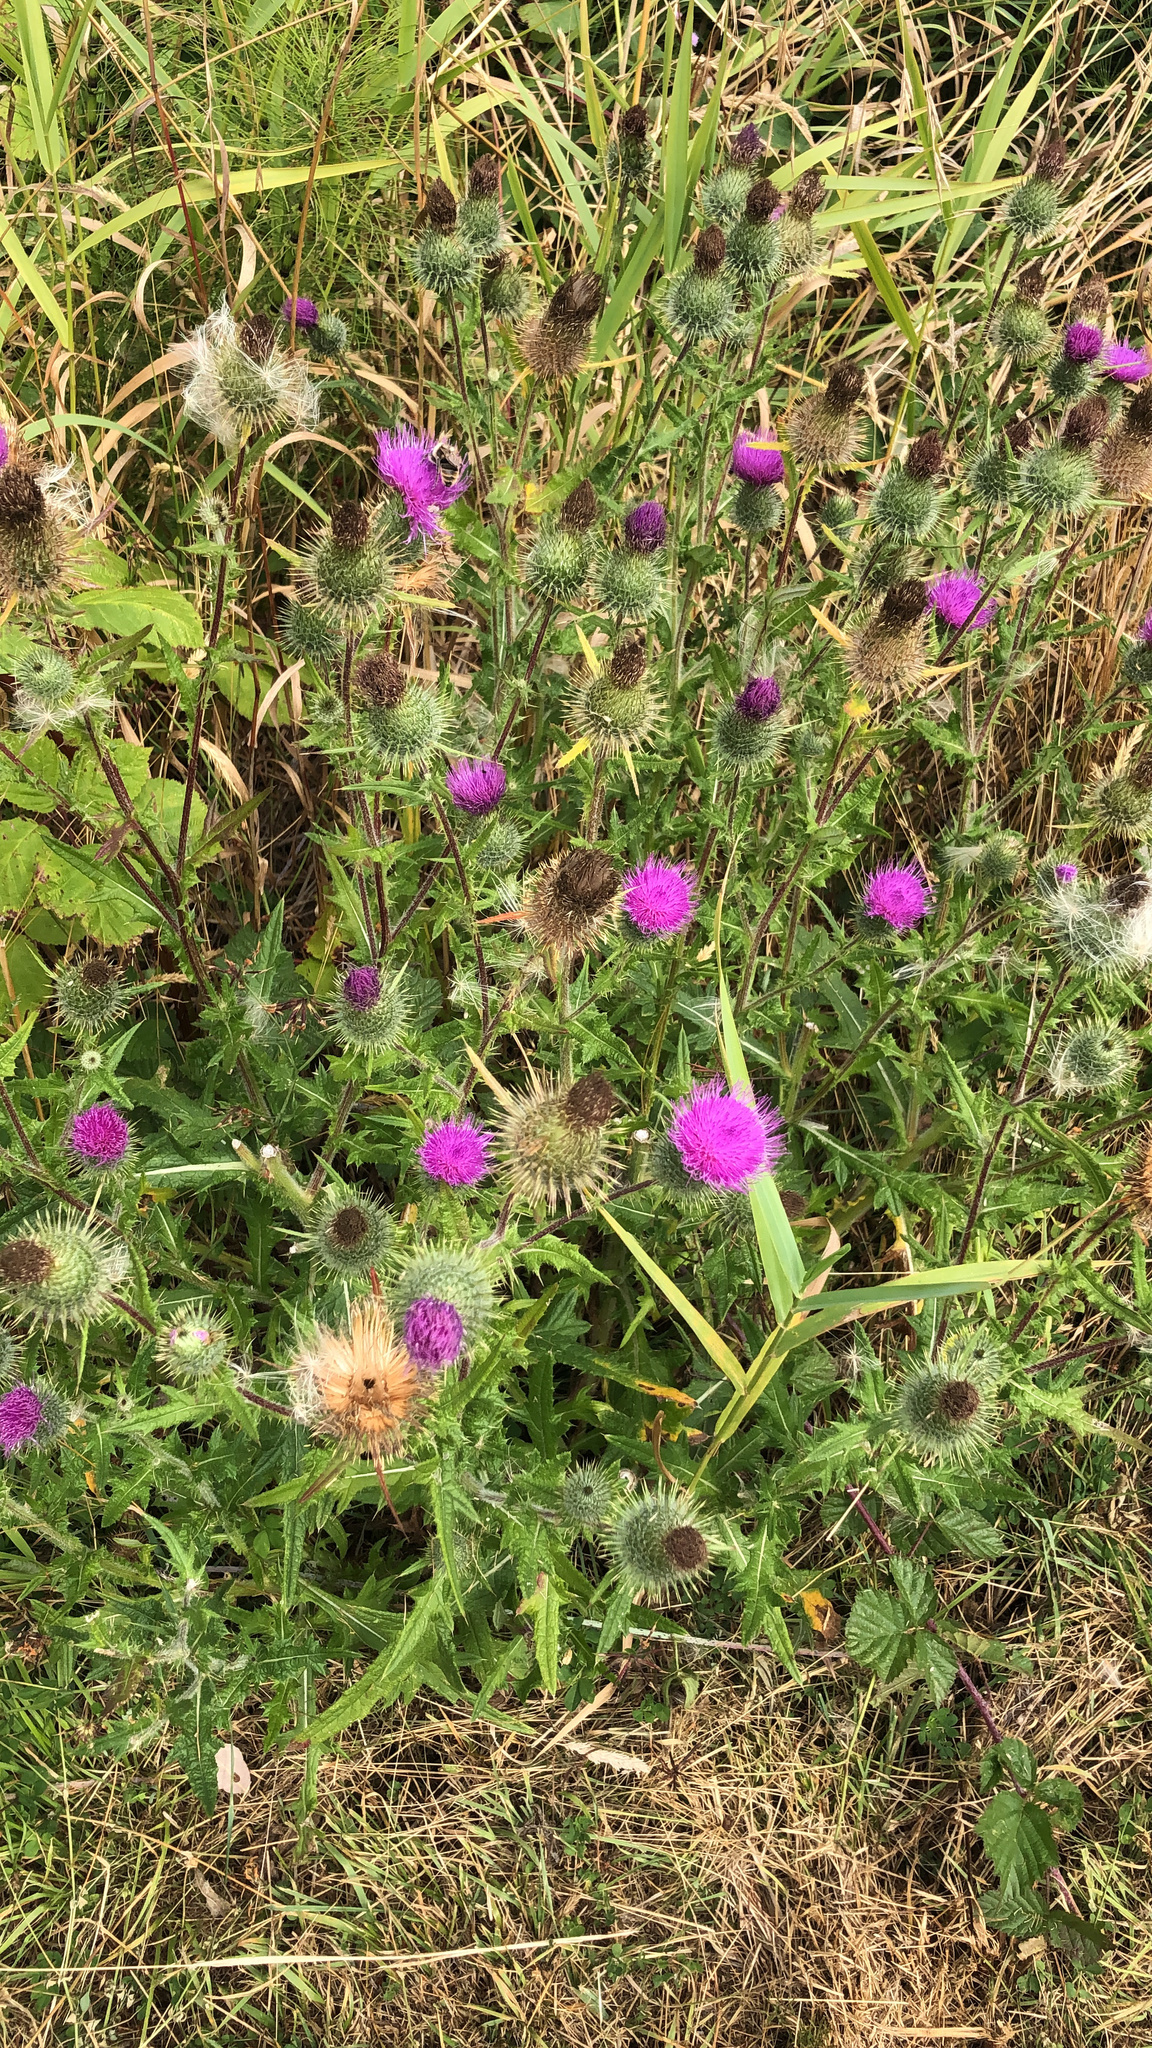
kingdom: Plantae
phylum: Tracheophyta
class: Magnoliopsida
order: Asterales
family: Asteraceae
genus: Cirsium
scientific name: Cirsium vulgare
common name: Bull thistle
